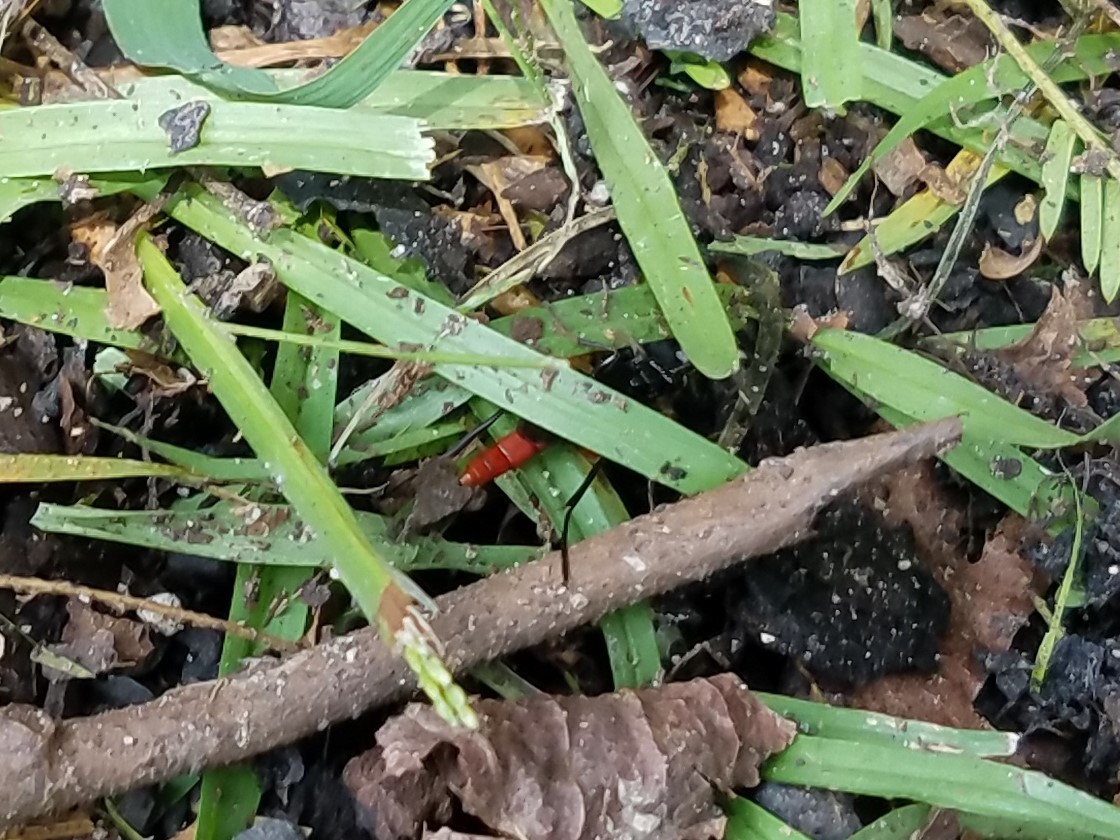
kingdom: Animalia
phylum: Arthropoda
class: Insecta
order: Hymenoptera
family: Ichneumonidae
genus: Limonethe
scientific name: Limonethe maurator
